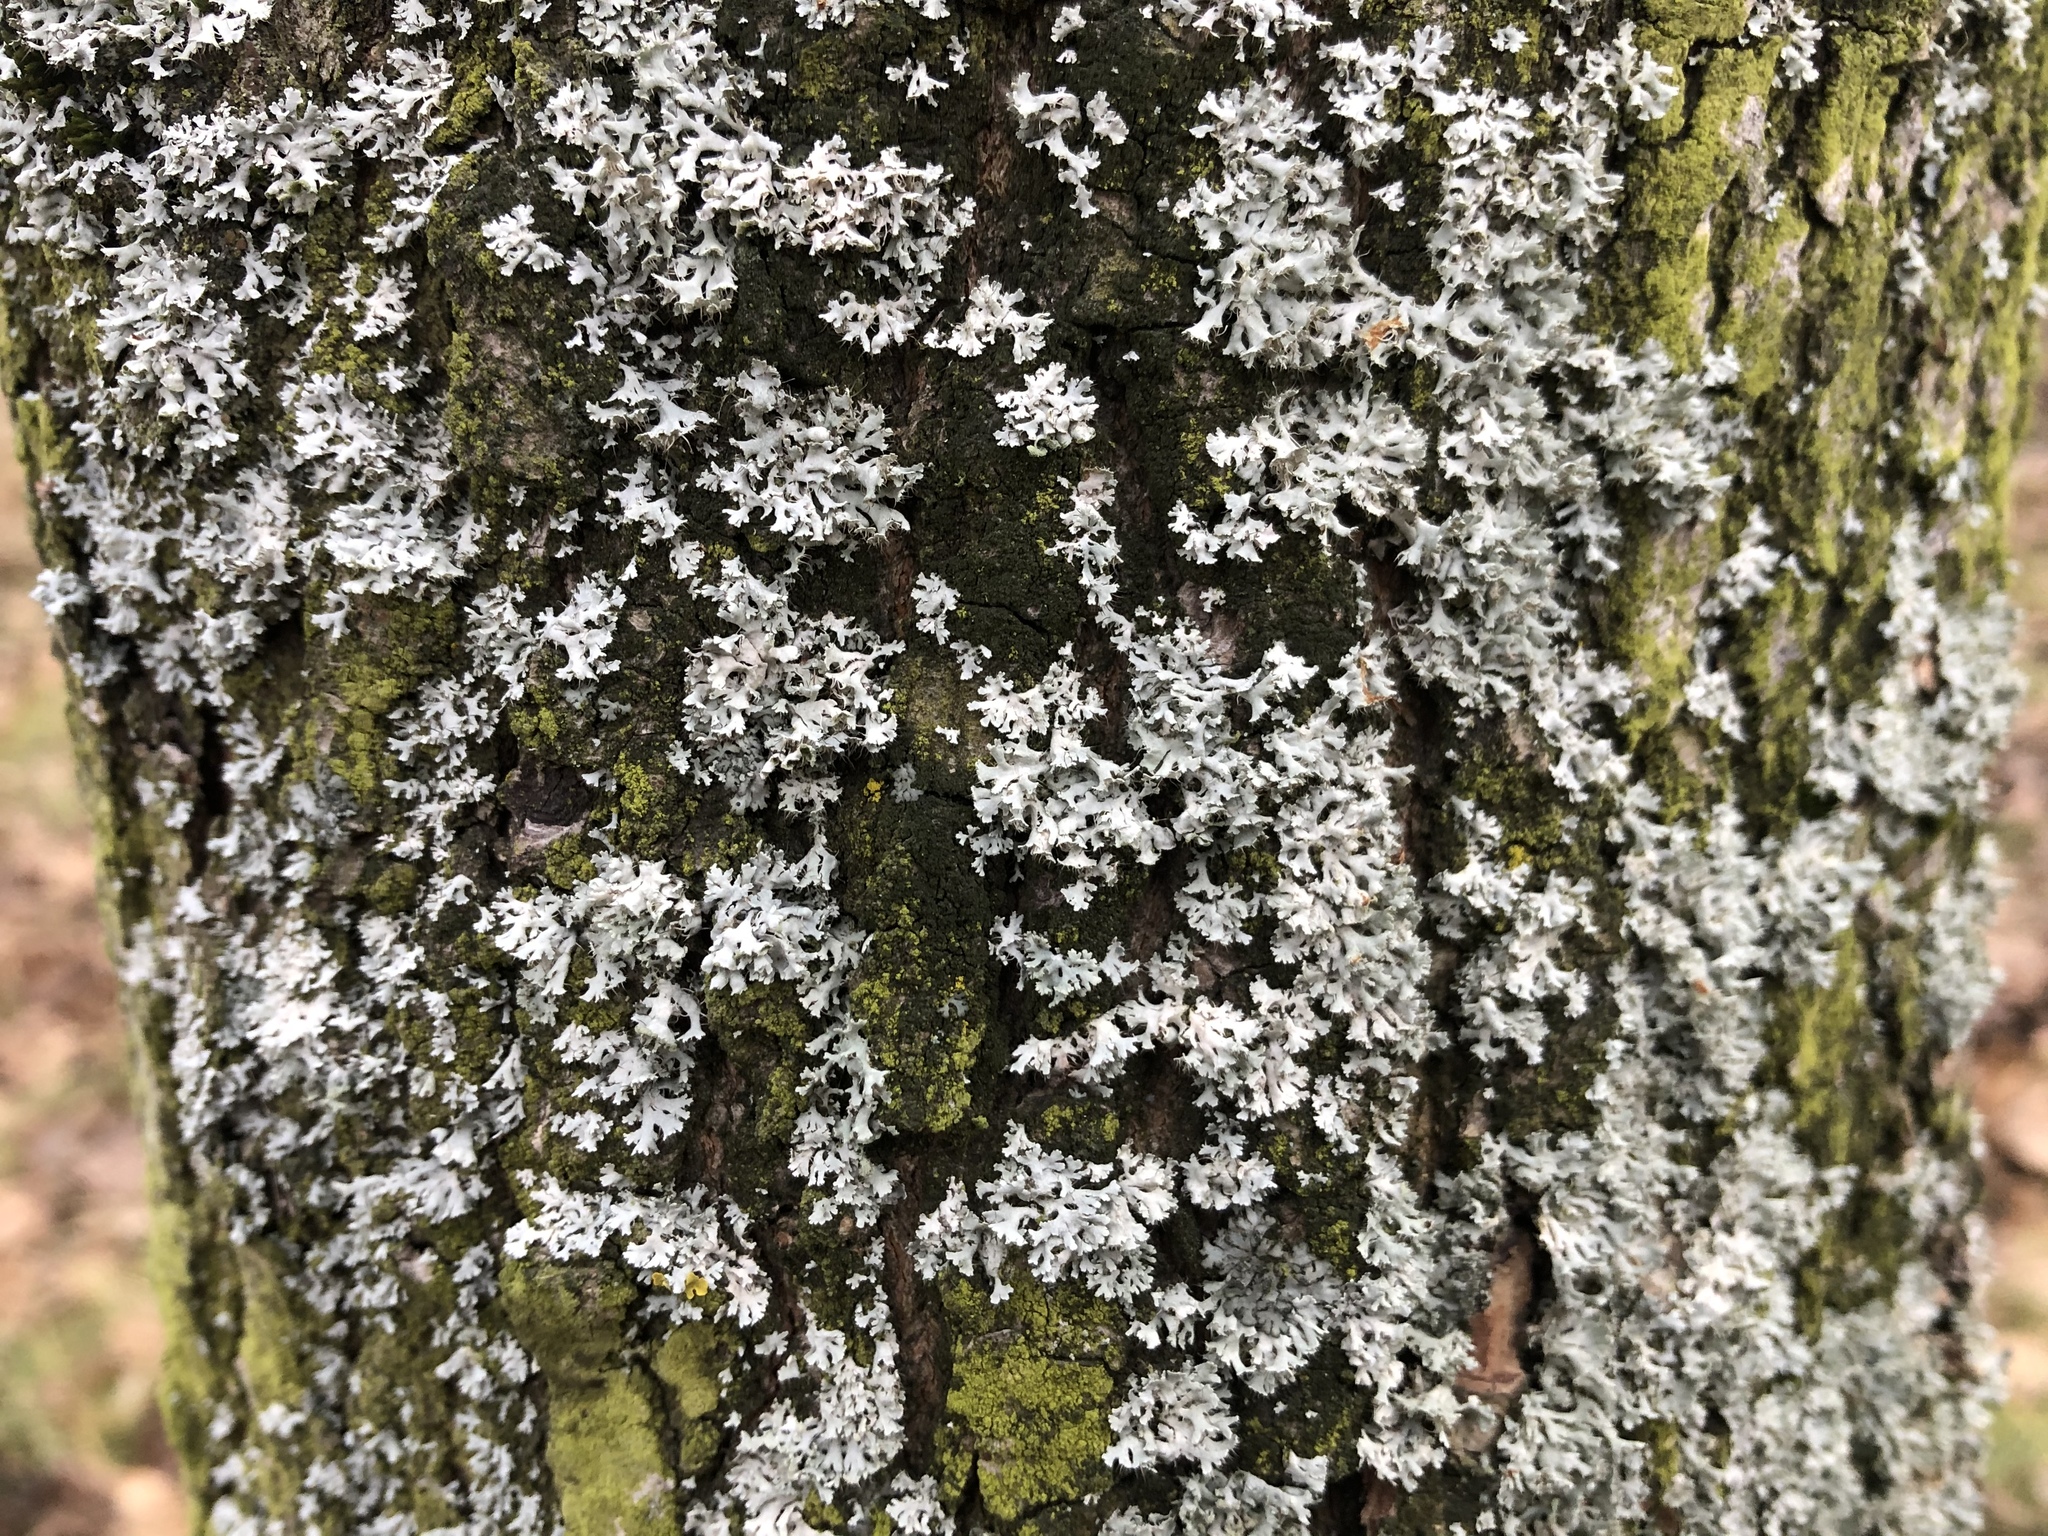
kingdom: Fungi
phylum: Ascomycota
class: Lecanoromycetes
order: Caliciales
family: Physciaceae
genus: Physcia
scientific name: Physcia adscendens
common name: Hooded rosette lichen
